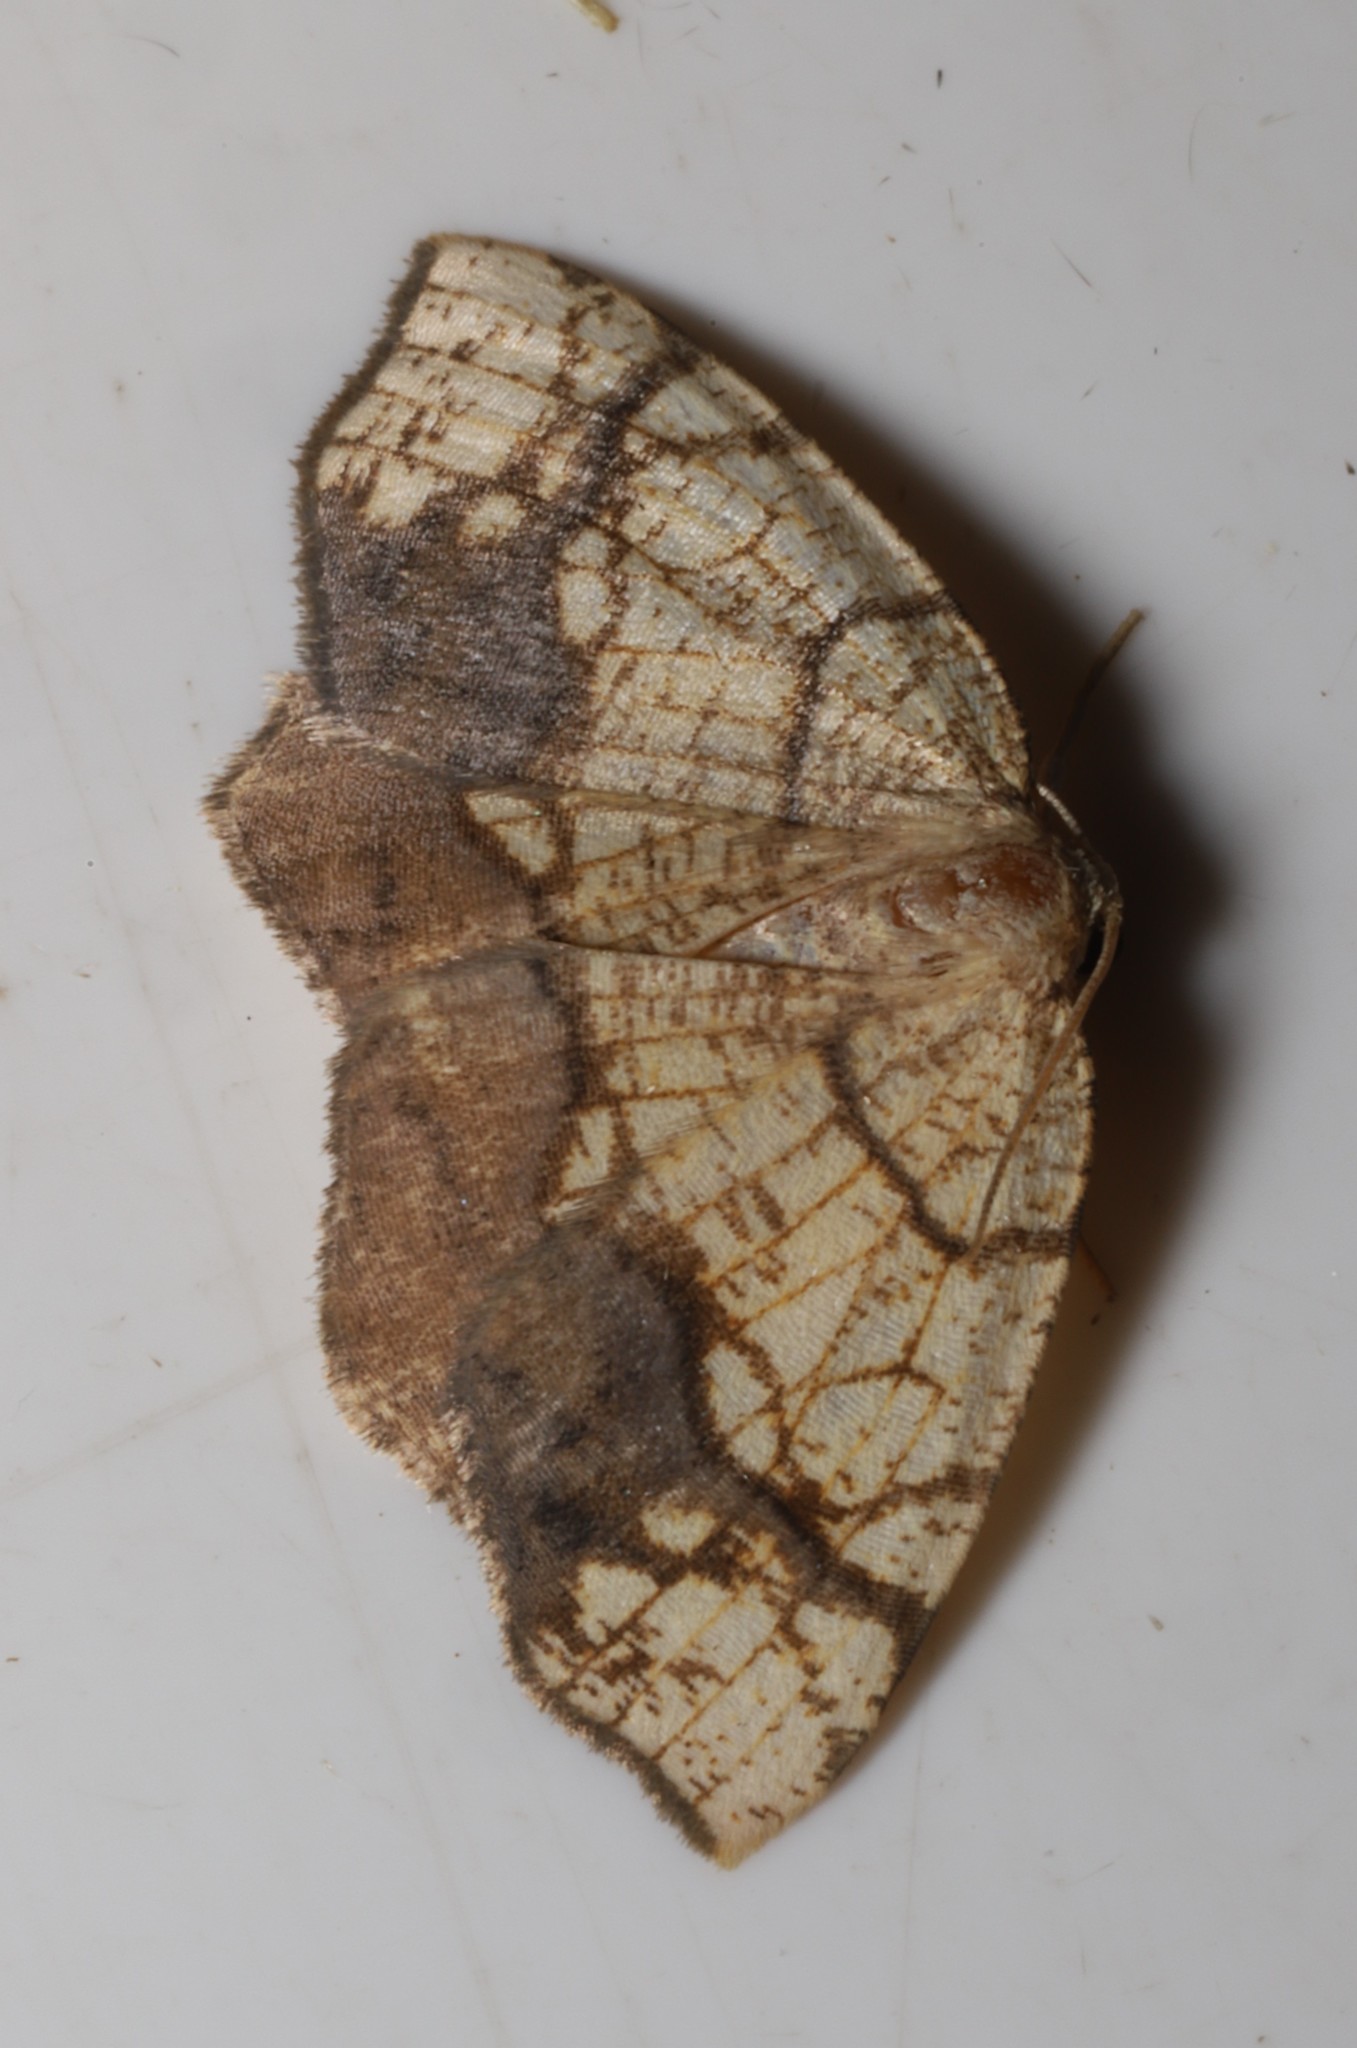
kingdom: Animalia
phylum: Arthropoda
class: Insecta
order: Lepidoptera
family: Geometridae
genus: Nematocampa
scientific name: Nematocampa resistaria
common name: Horned spanworm moth
